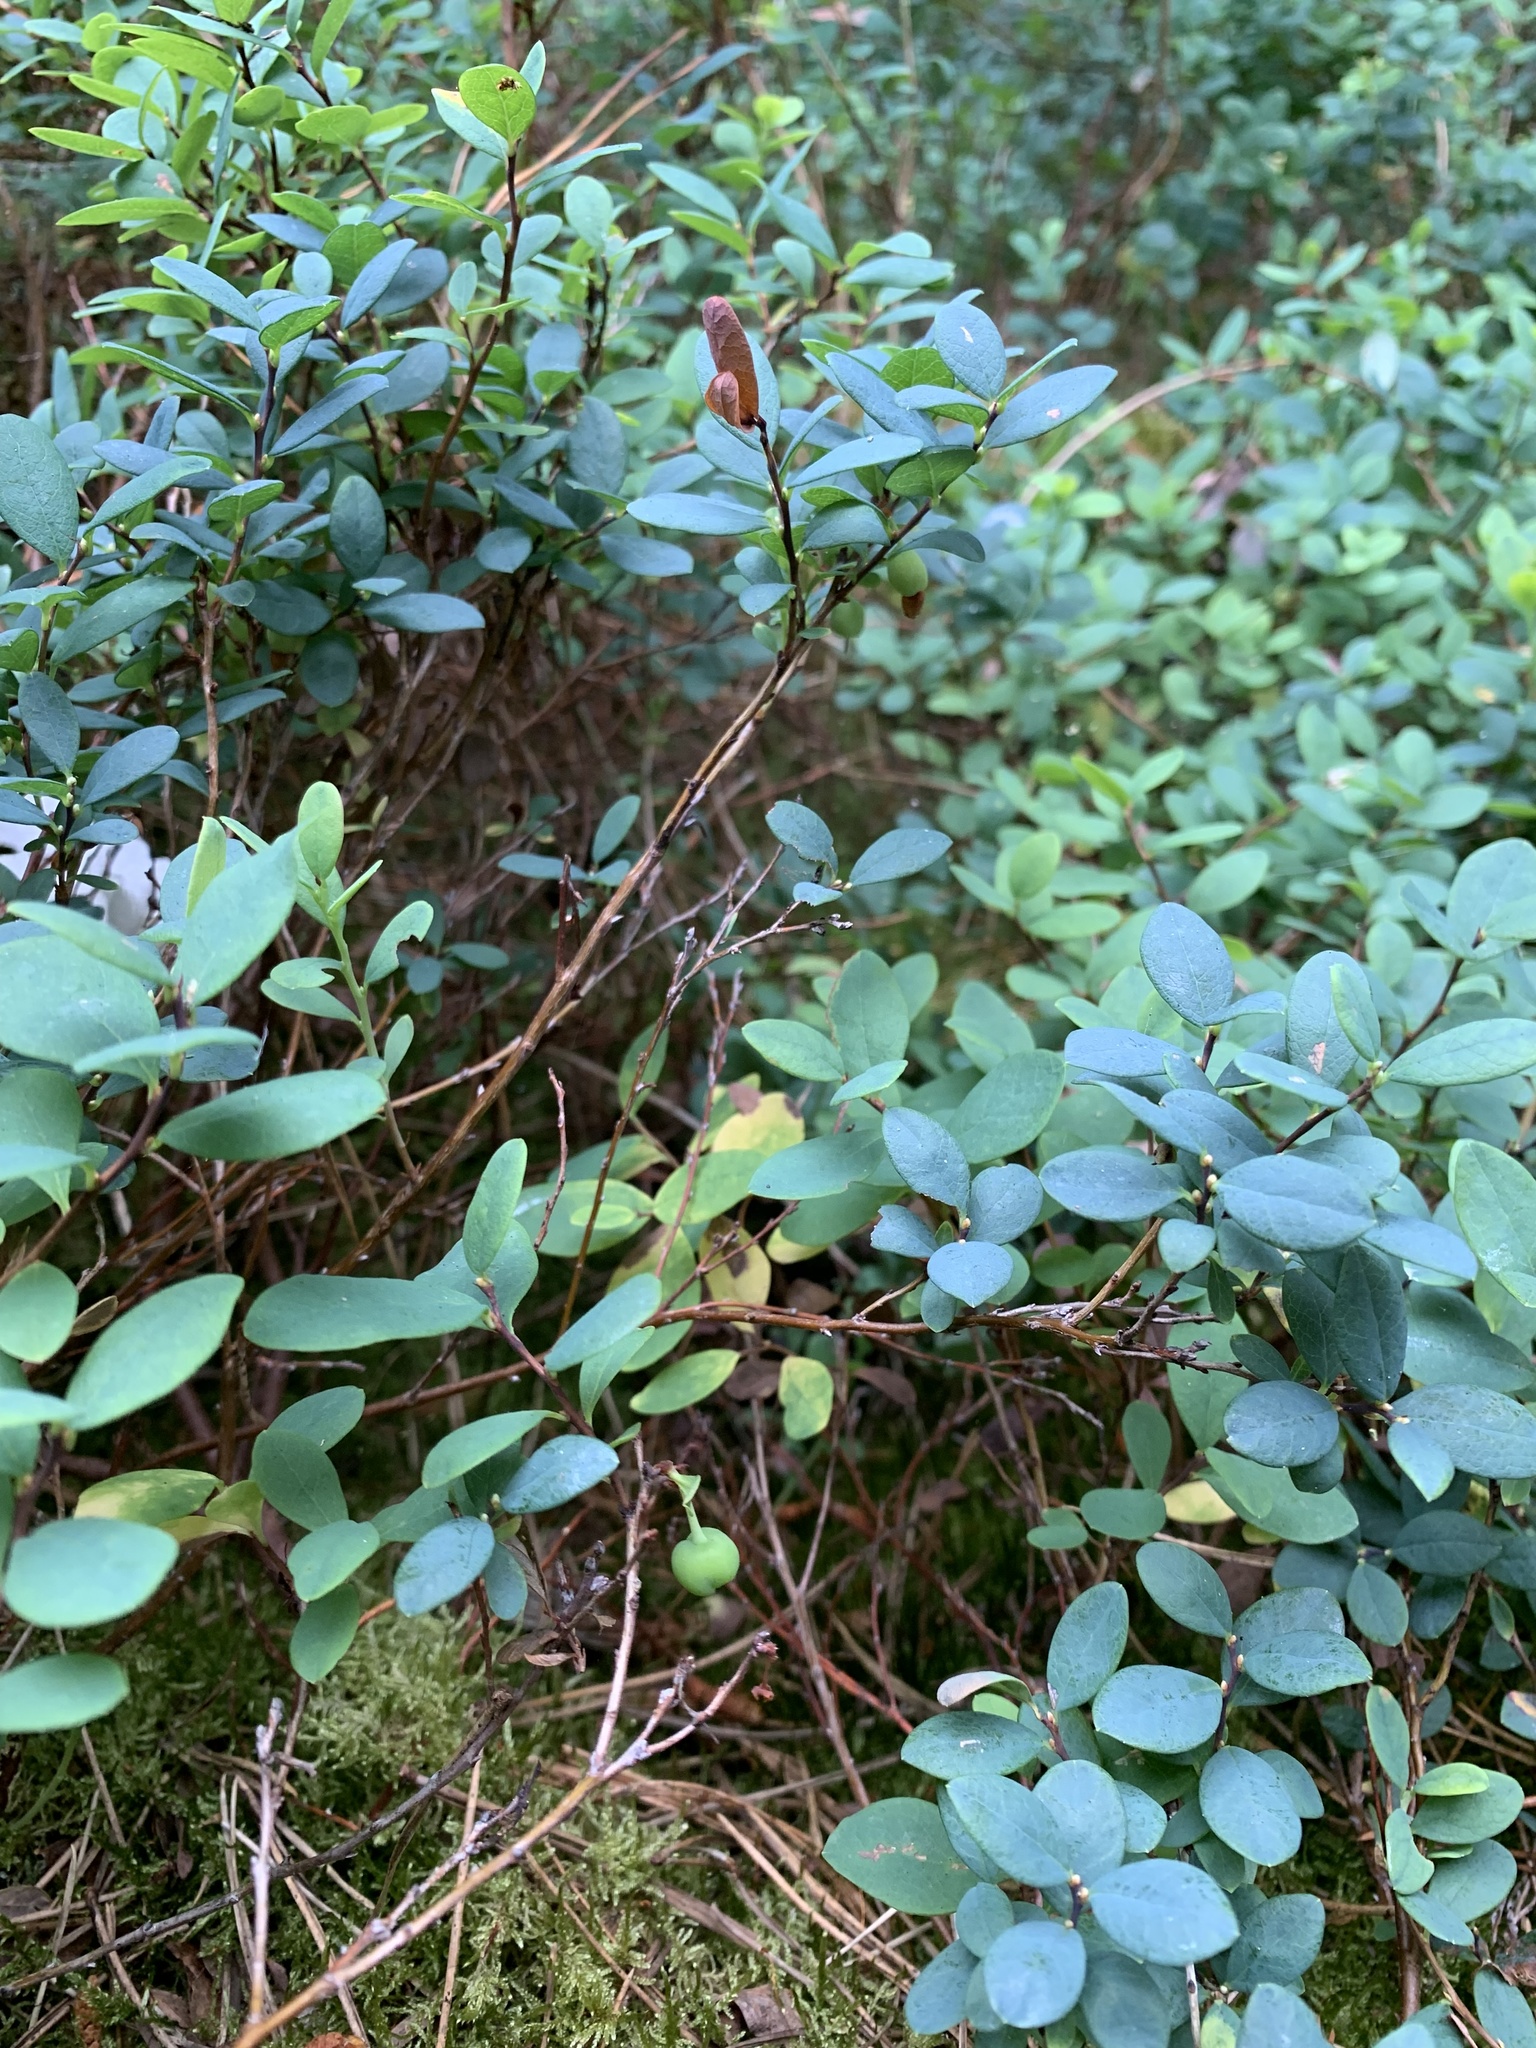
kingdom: Plantae
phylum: Tracheophyta
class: Magnoliopsida
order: Ericales
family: Ericaceae
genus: Vaccinium
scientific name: Vaccinium uliginosum
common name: Bog bilberry
